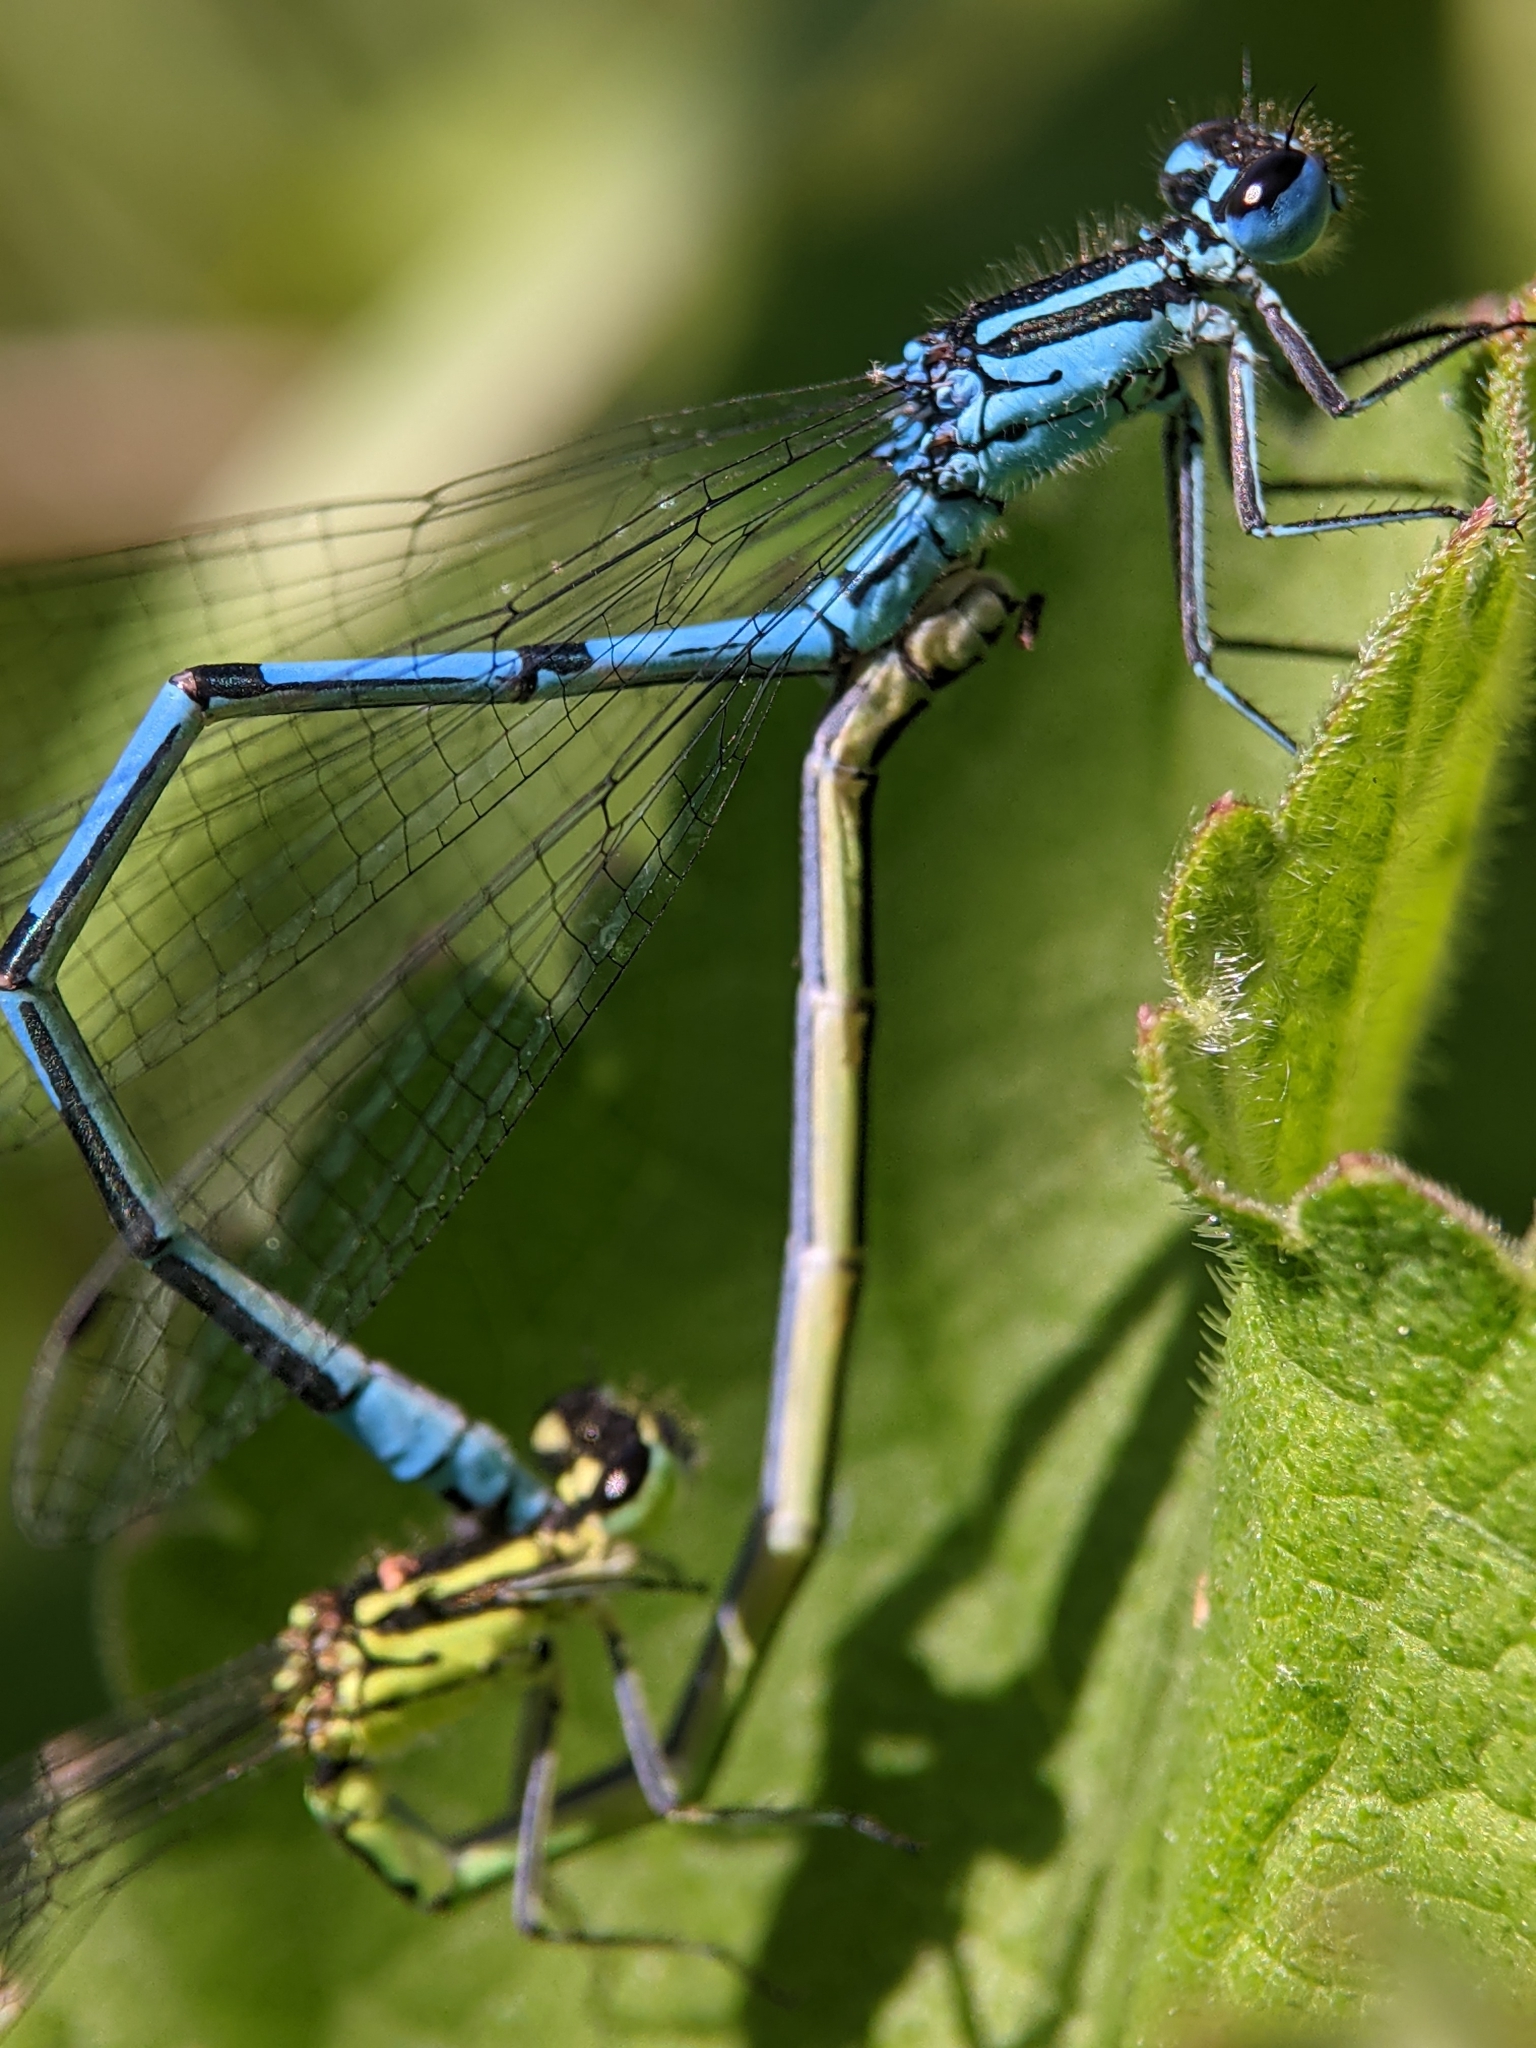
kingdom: Animalia
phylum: Arthropoda
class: Insecta
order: Odonata
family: Coenagrionidae
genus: Coenagrion
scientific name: Coenagrion puella
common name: Azure damselfly
